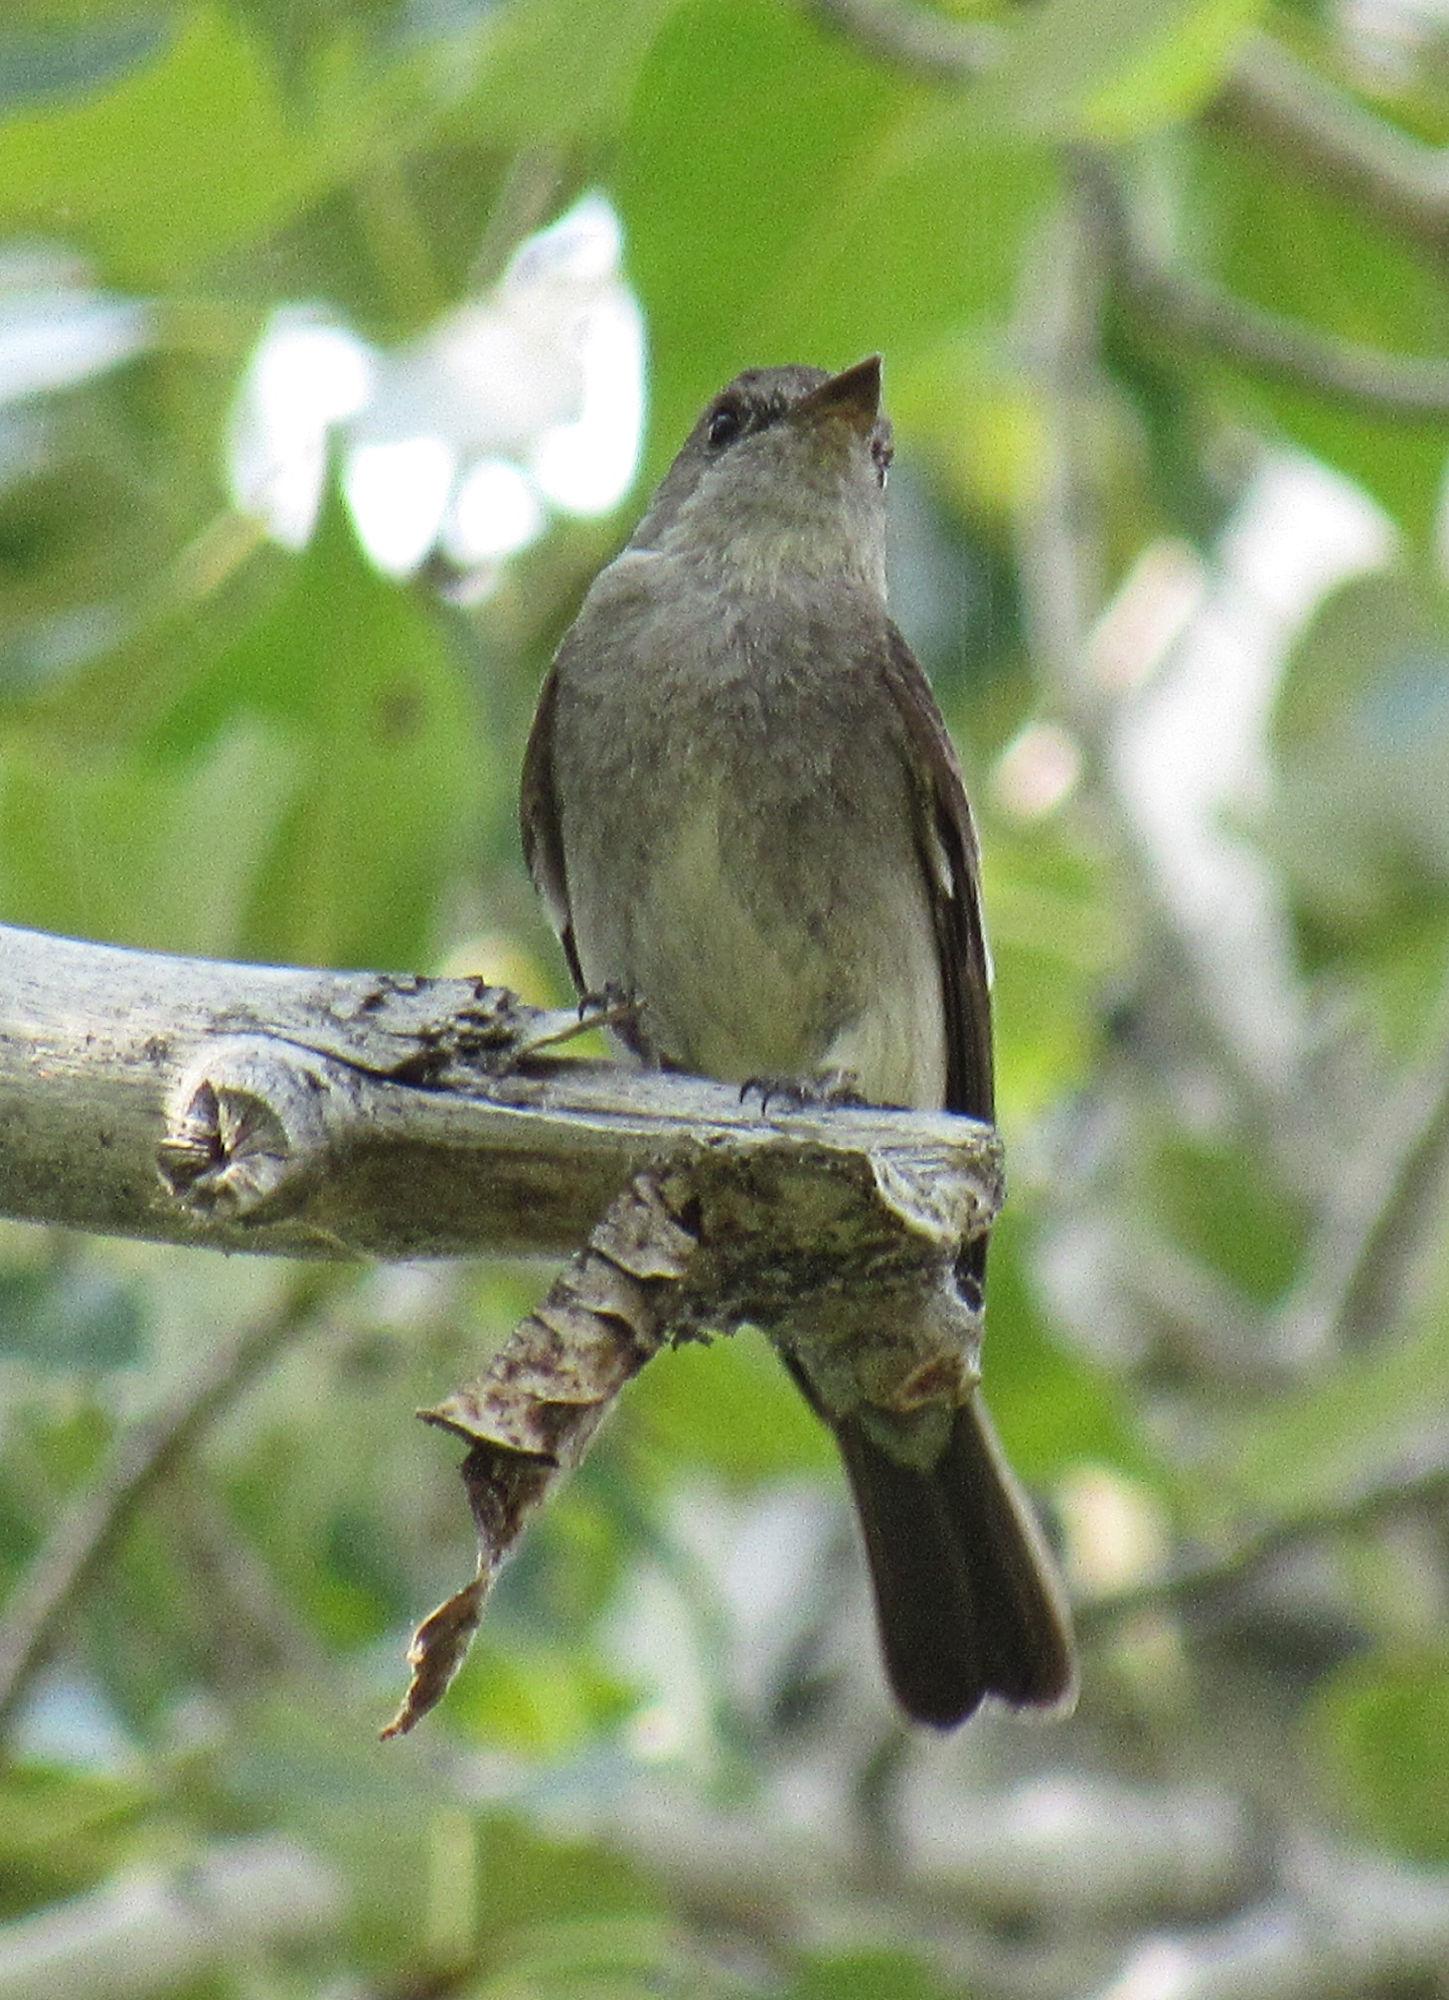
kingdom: Animalia
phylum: Chordata
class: Aves
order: Passeriformes
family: Tyrannidae
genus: Contopus
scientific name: Contopus sordidulus
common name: Western wood-pewee
